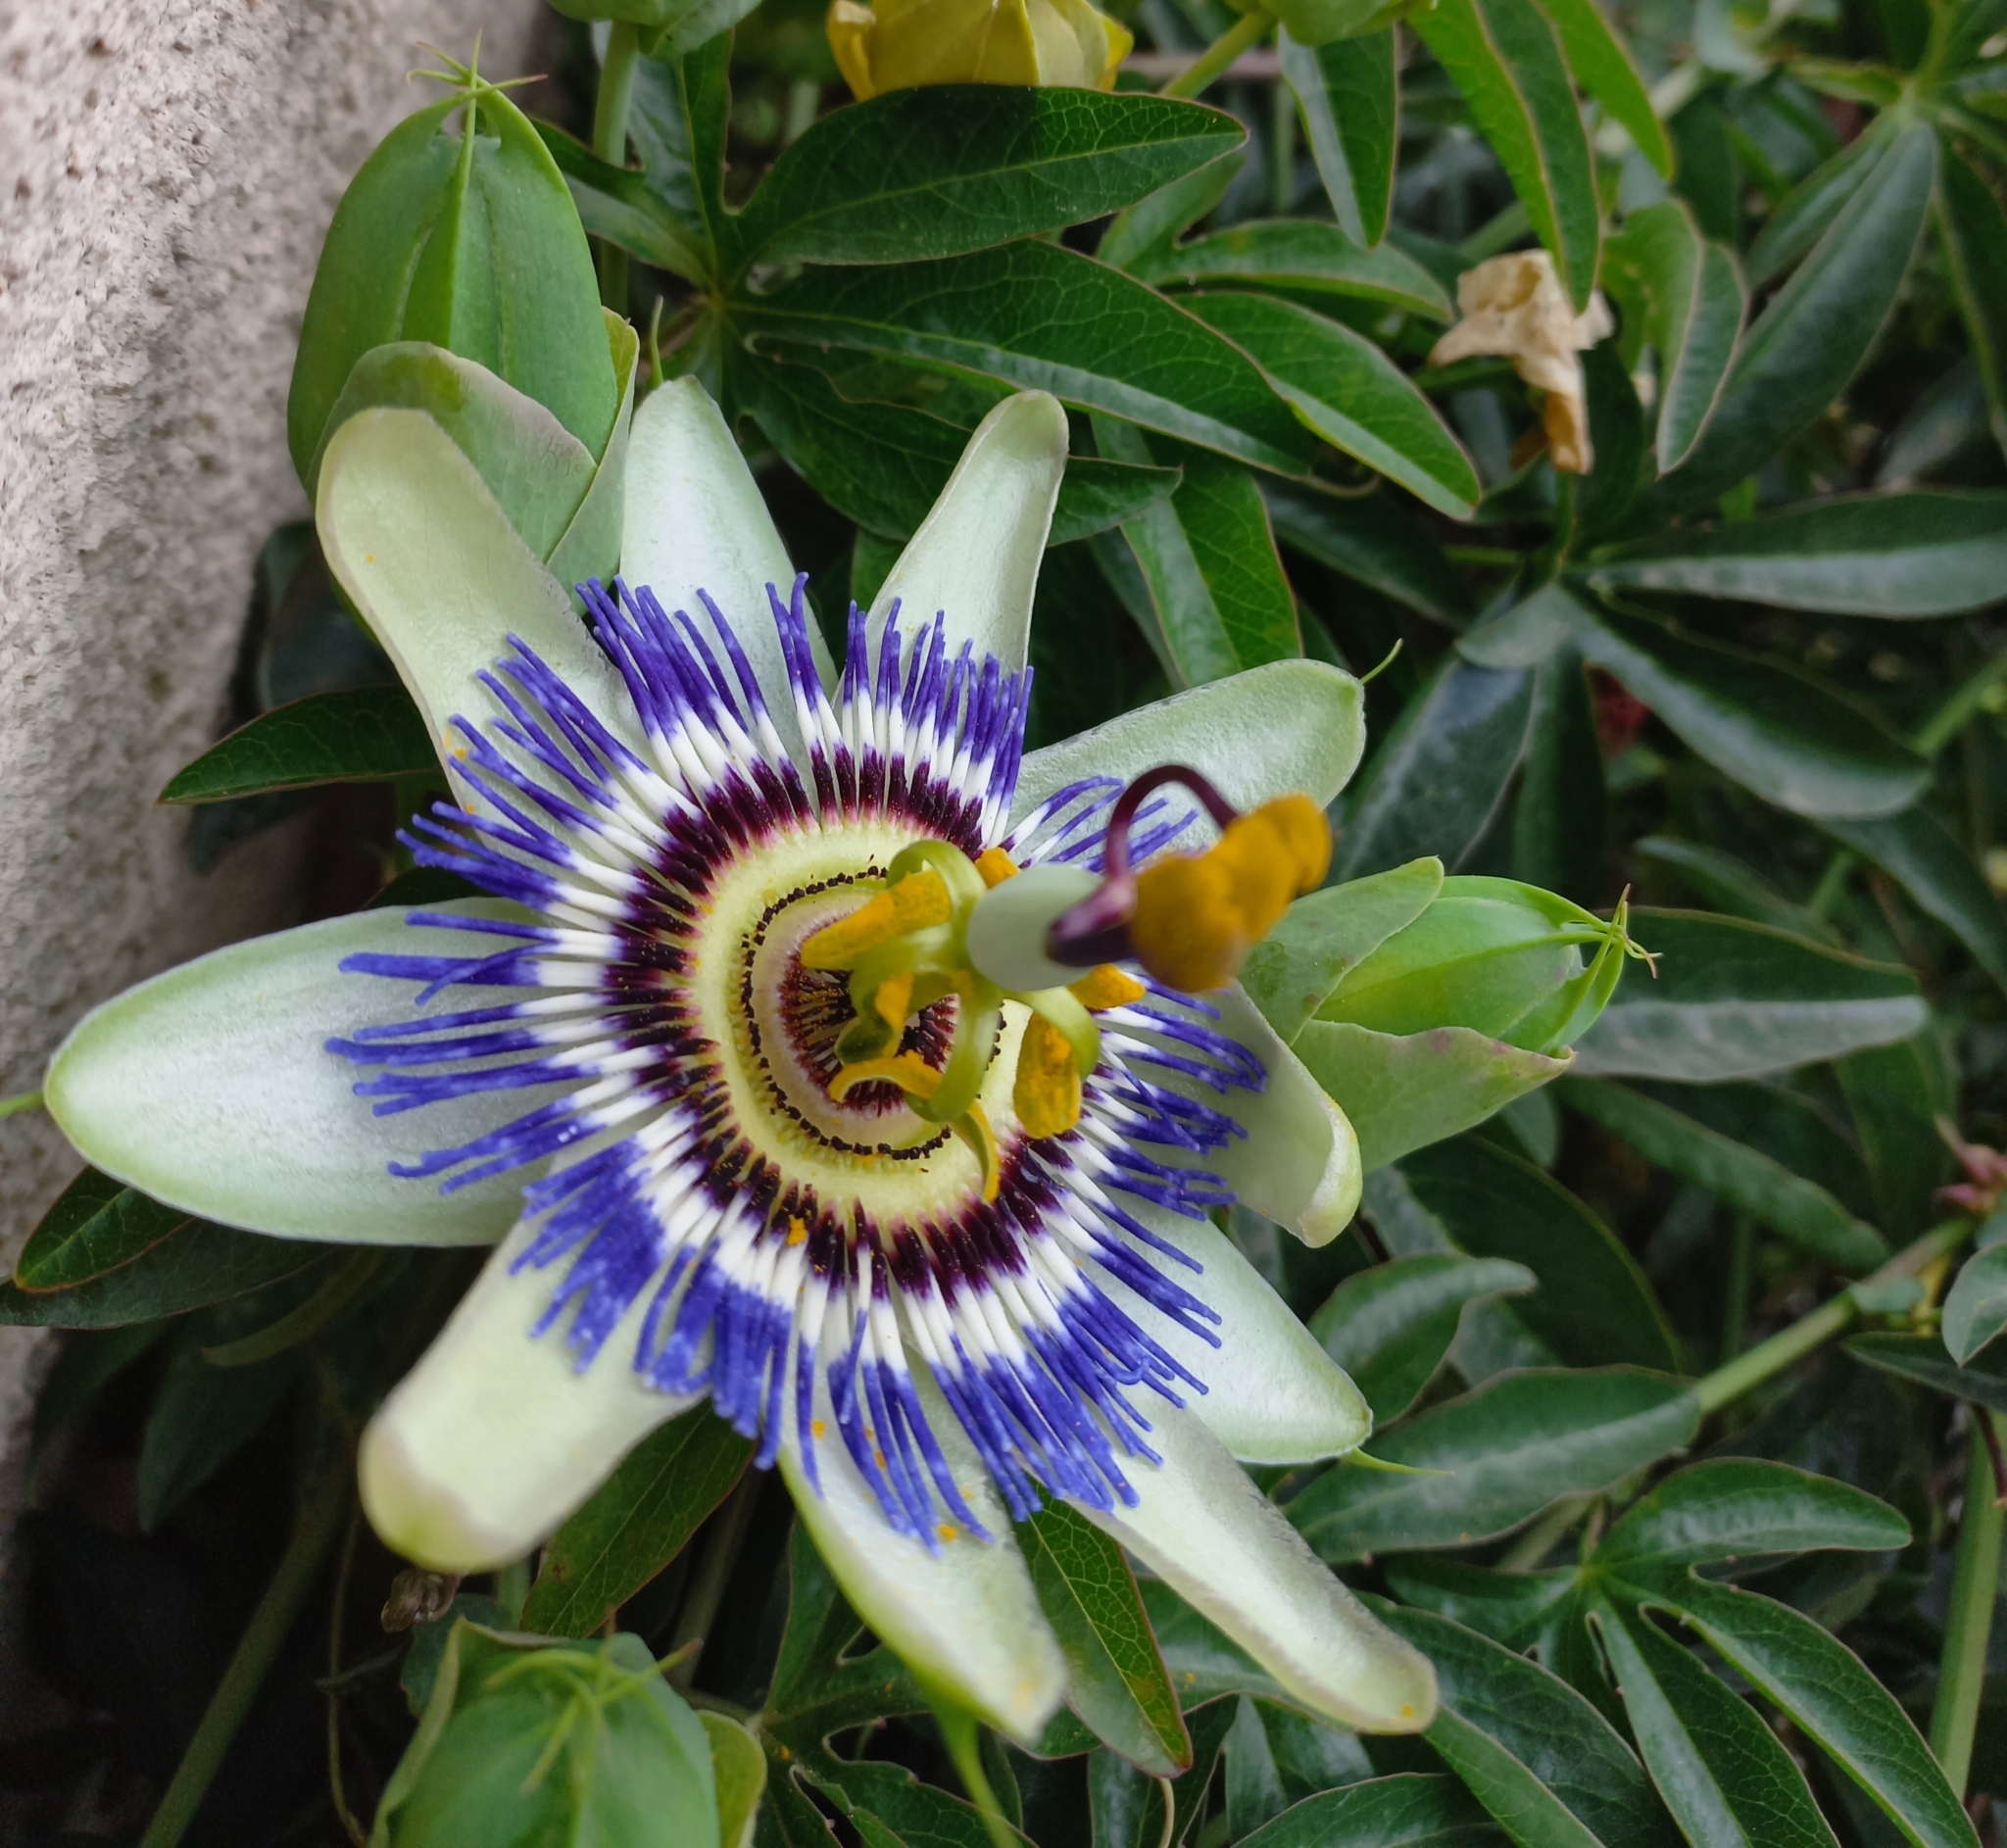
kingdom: Plantae
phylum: Tracheophyta
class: Magnoliopsida
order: Malpighiales
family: Passifloraceae
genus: Passiflora
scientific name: Passiflora caerulea
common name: Blue passionflower
